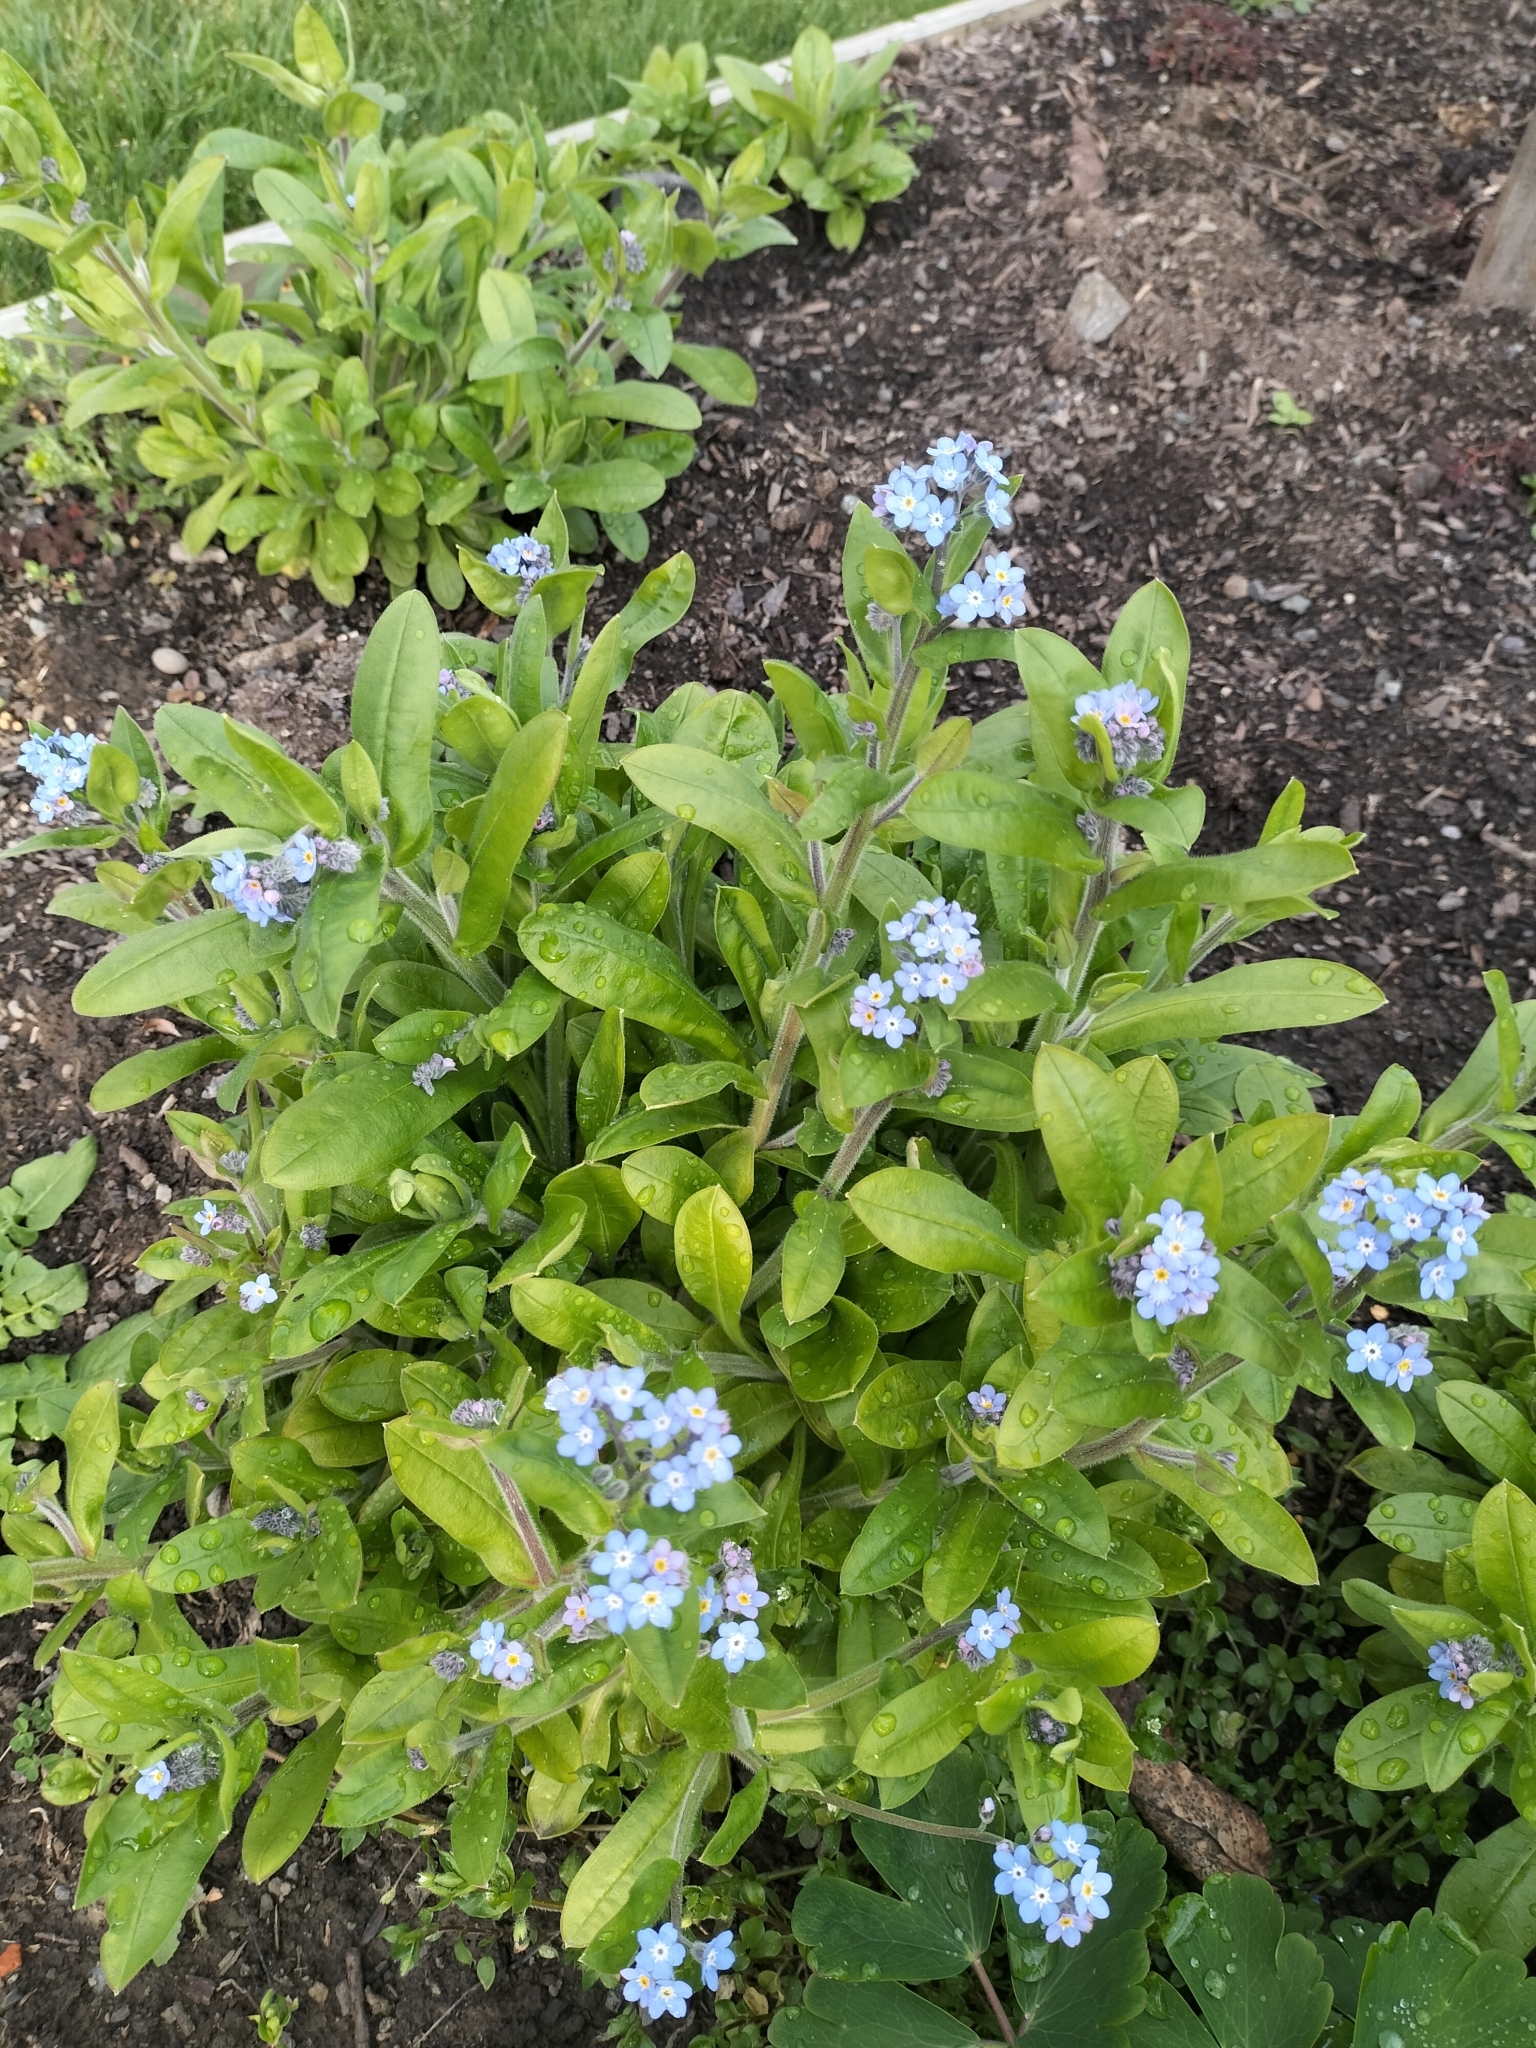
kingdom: Plantae
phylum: Tracheophyta
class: Magnoliopsida
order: Boraginales
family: Boraginaceae
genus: Myosotis
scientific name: Myosotis sylvatica
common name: Wood forget-me-not
